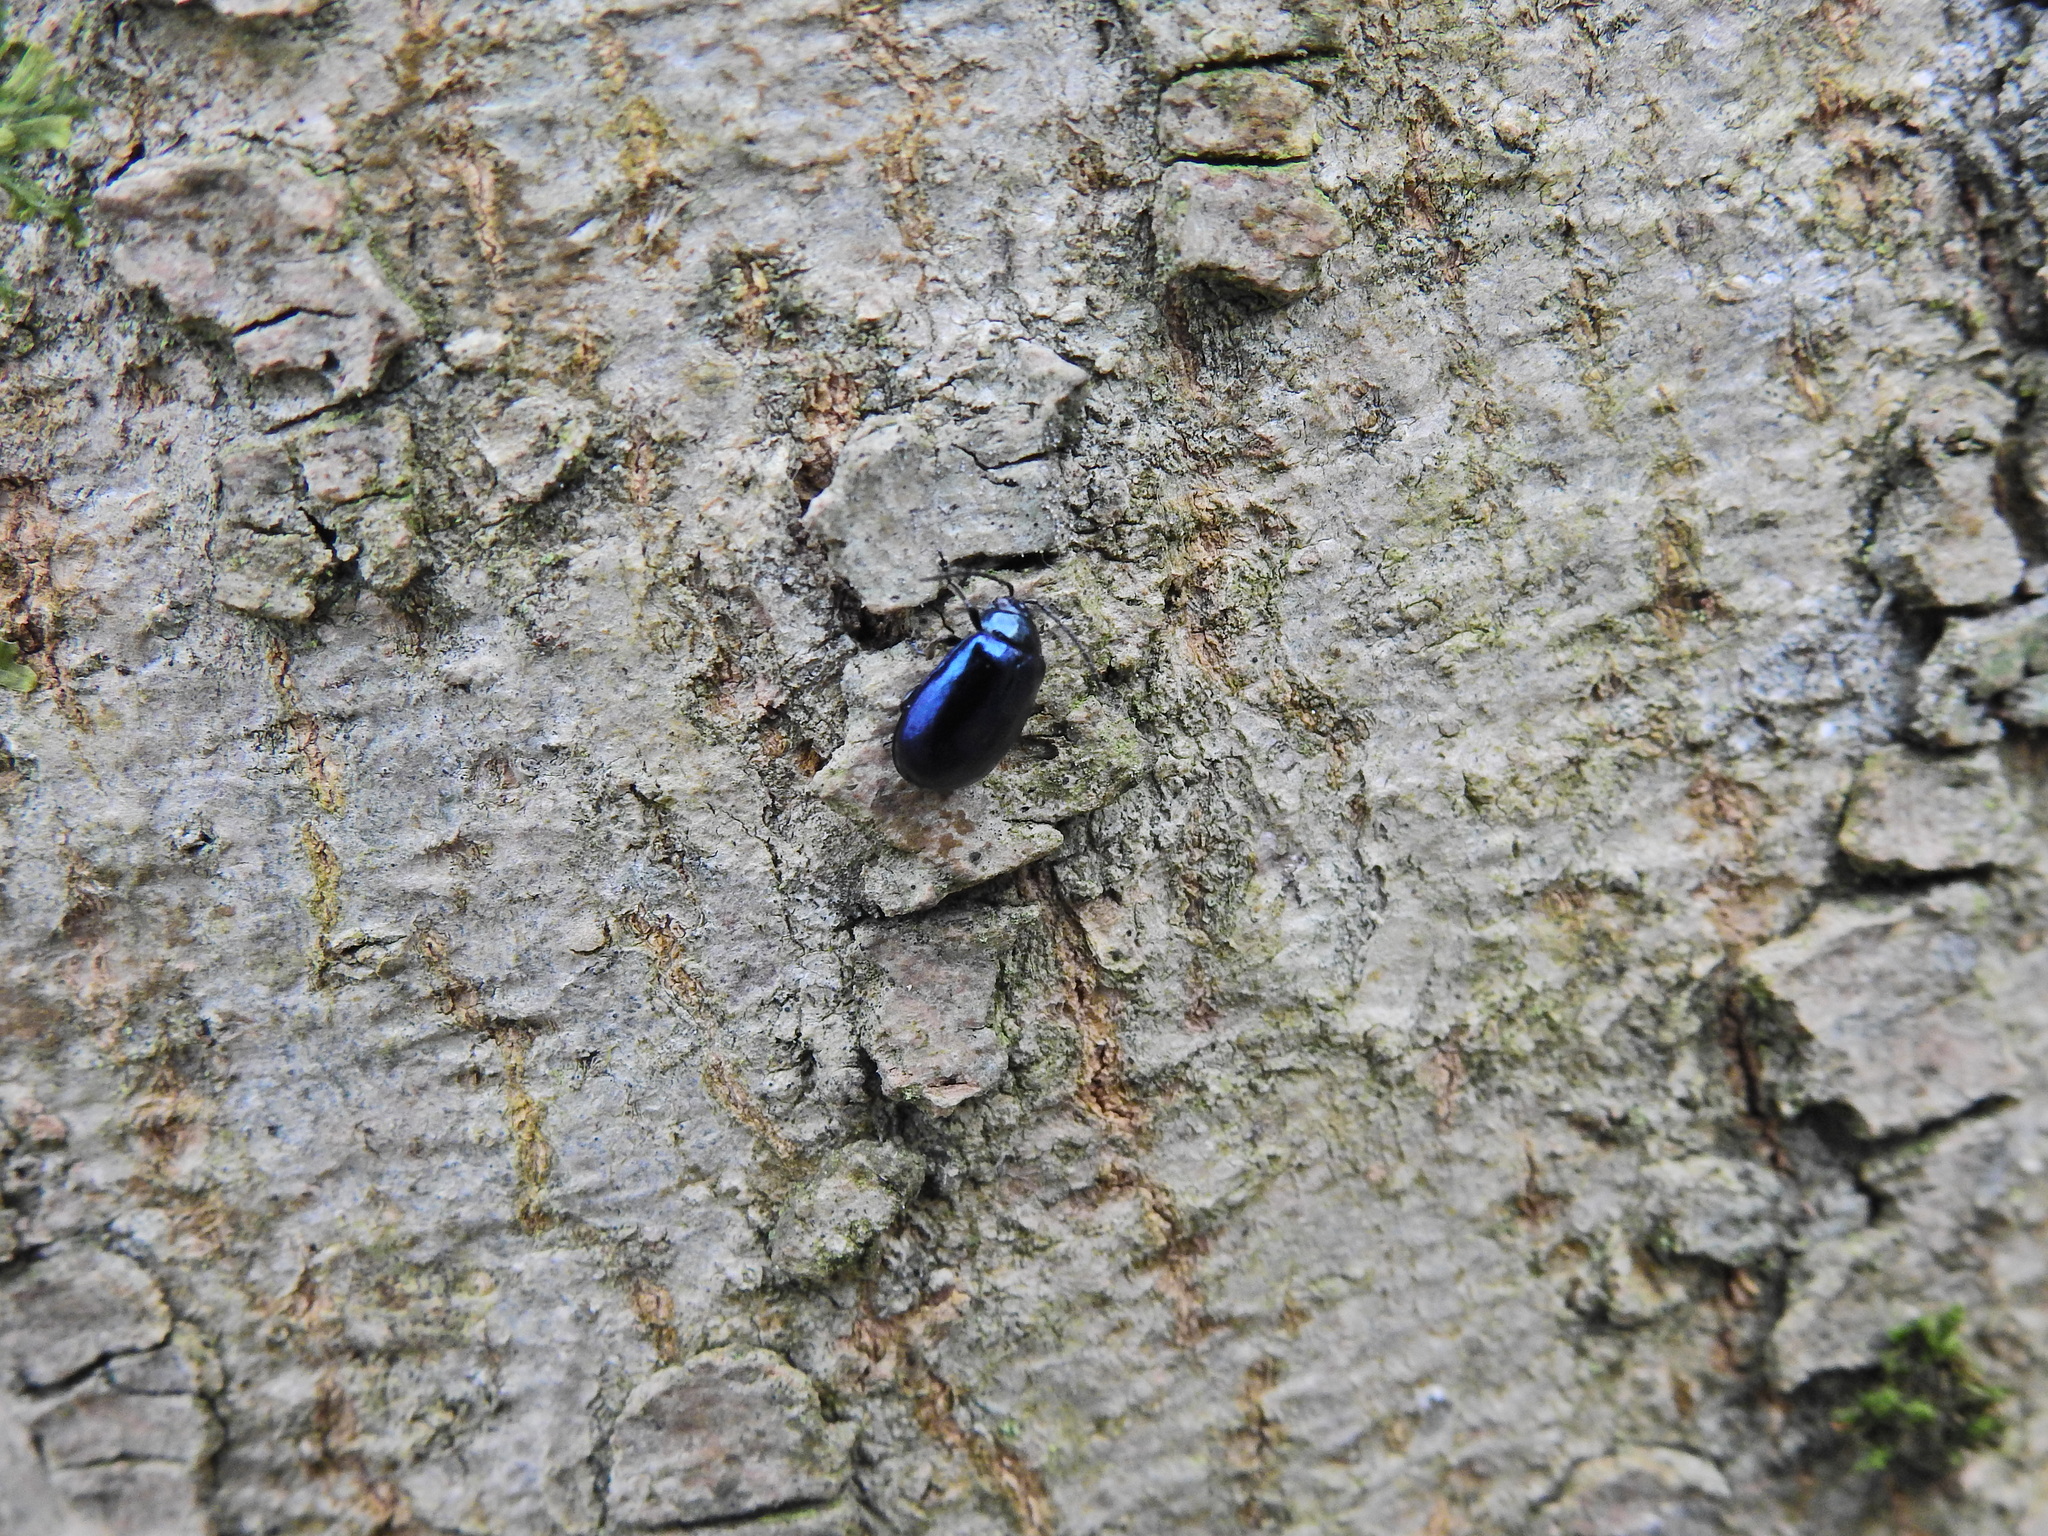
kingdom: Animalia
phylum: Arthropoda
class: Insecta
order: Coleoptera
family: Chrysomelidae
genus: Agelastica
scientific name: Agelastica alni
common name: Alder leaf beetle
